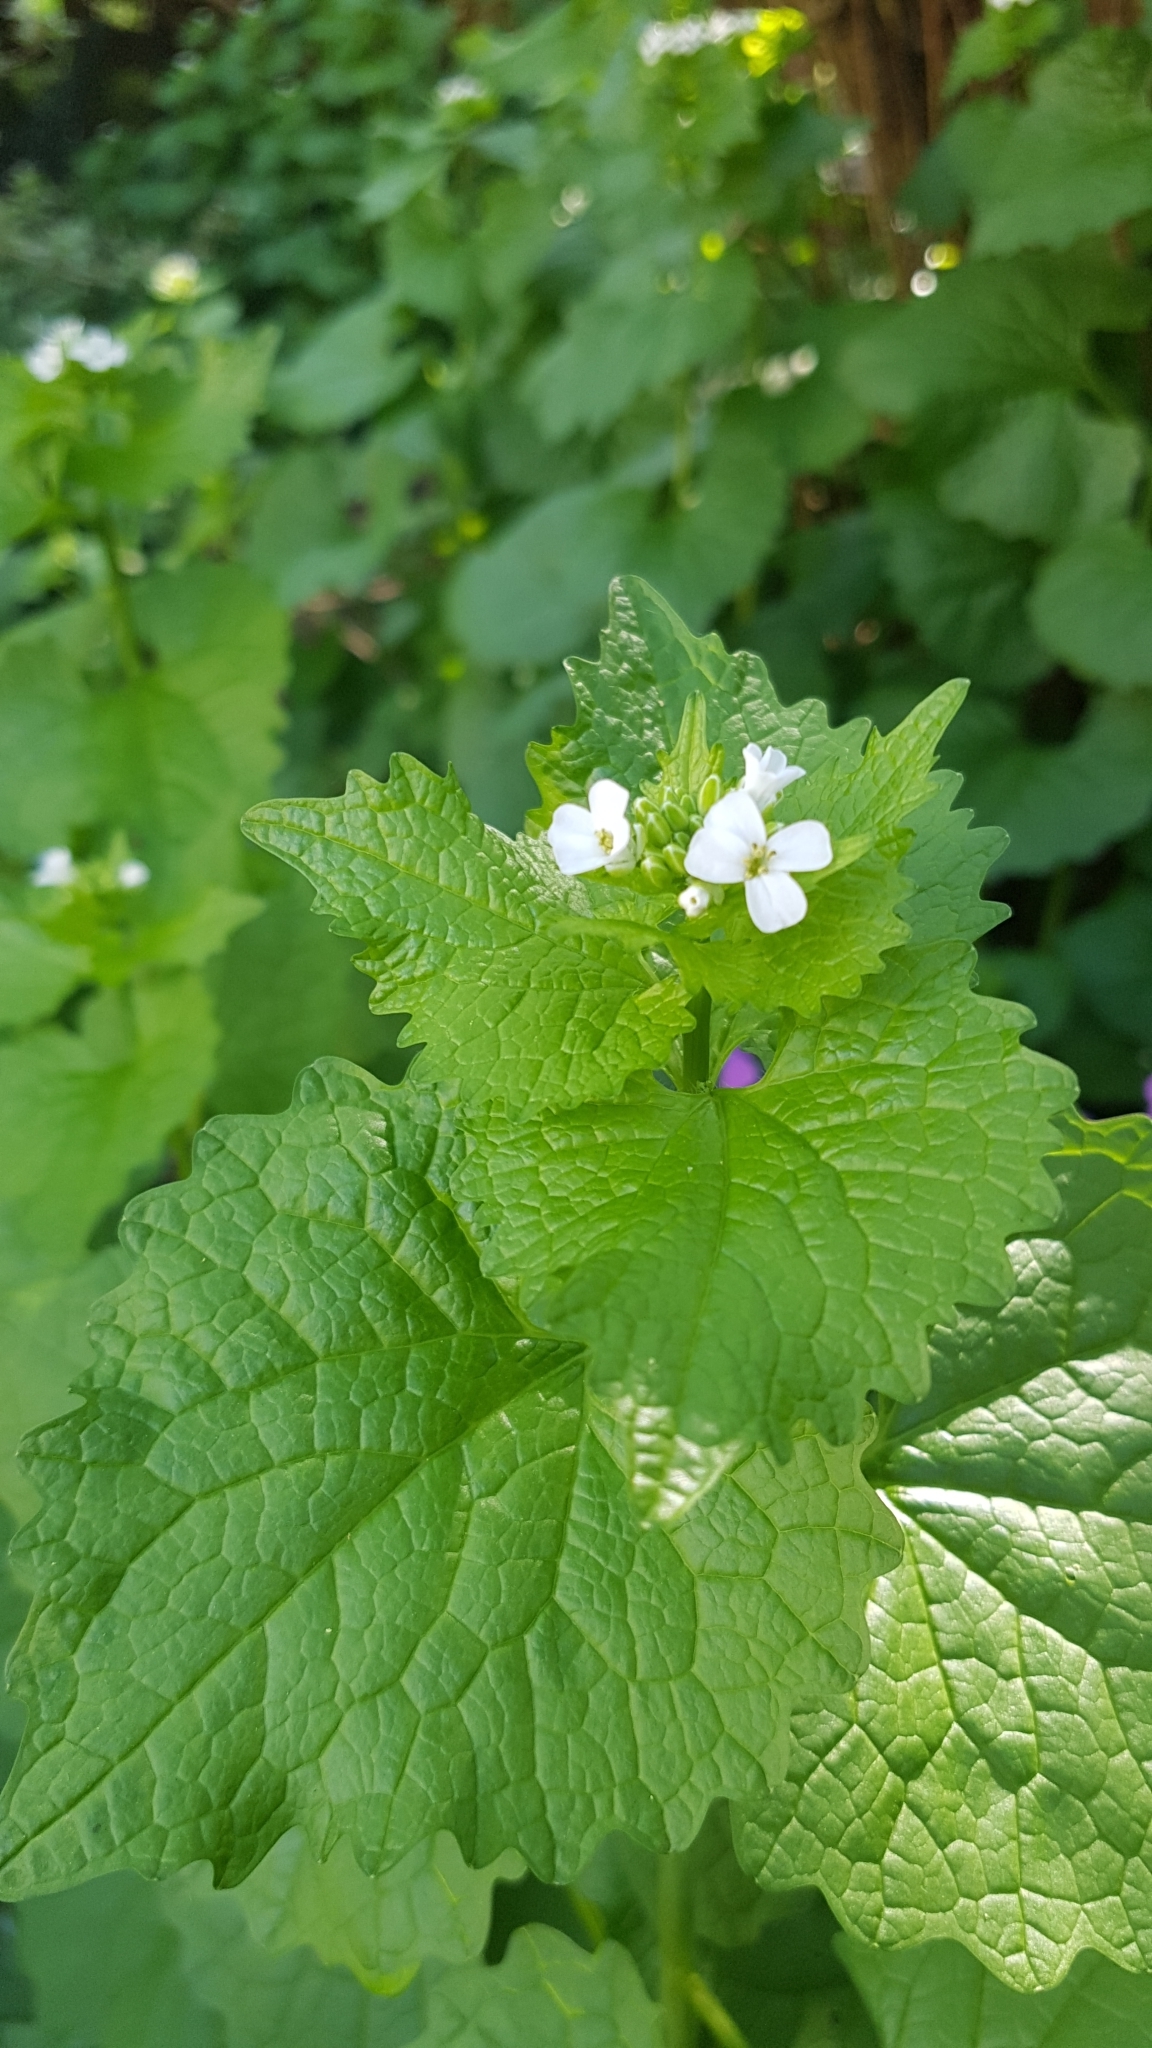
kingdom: Plantae
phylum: Tracheophyta
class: Magnoliopsida
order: Brassicales
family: Brassicaceae
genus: Alliaria
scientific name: Alliaria petiolata
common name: Garlic mustard
